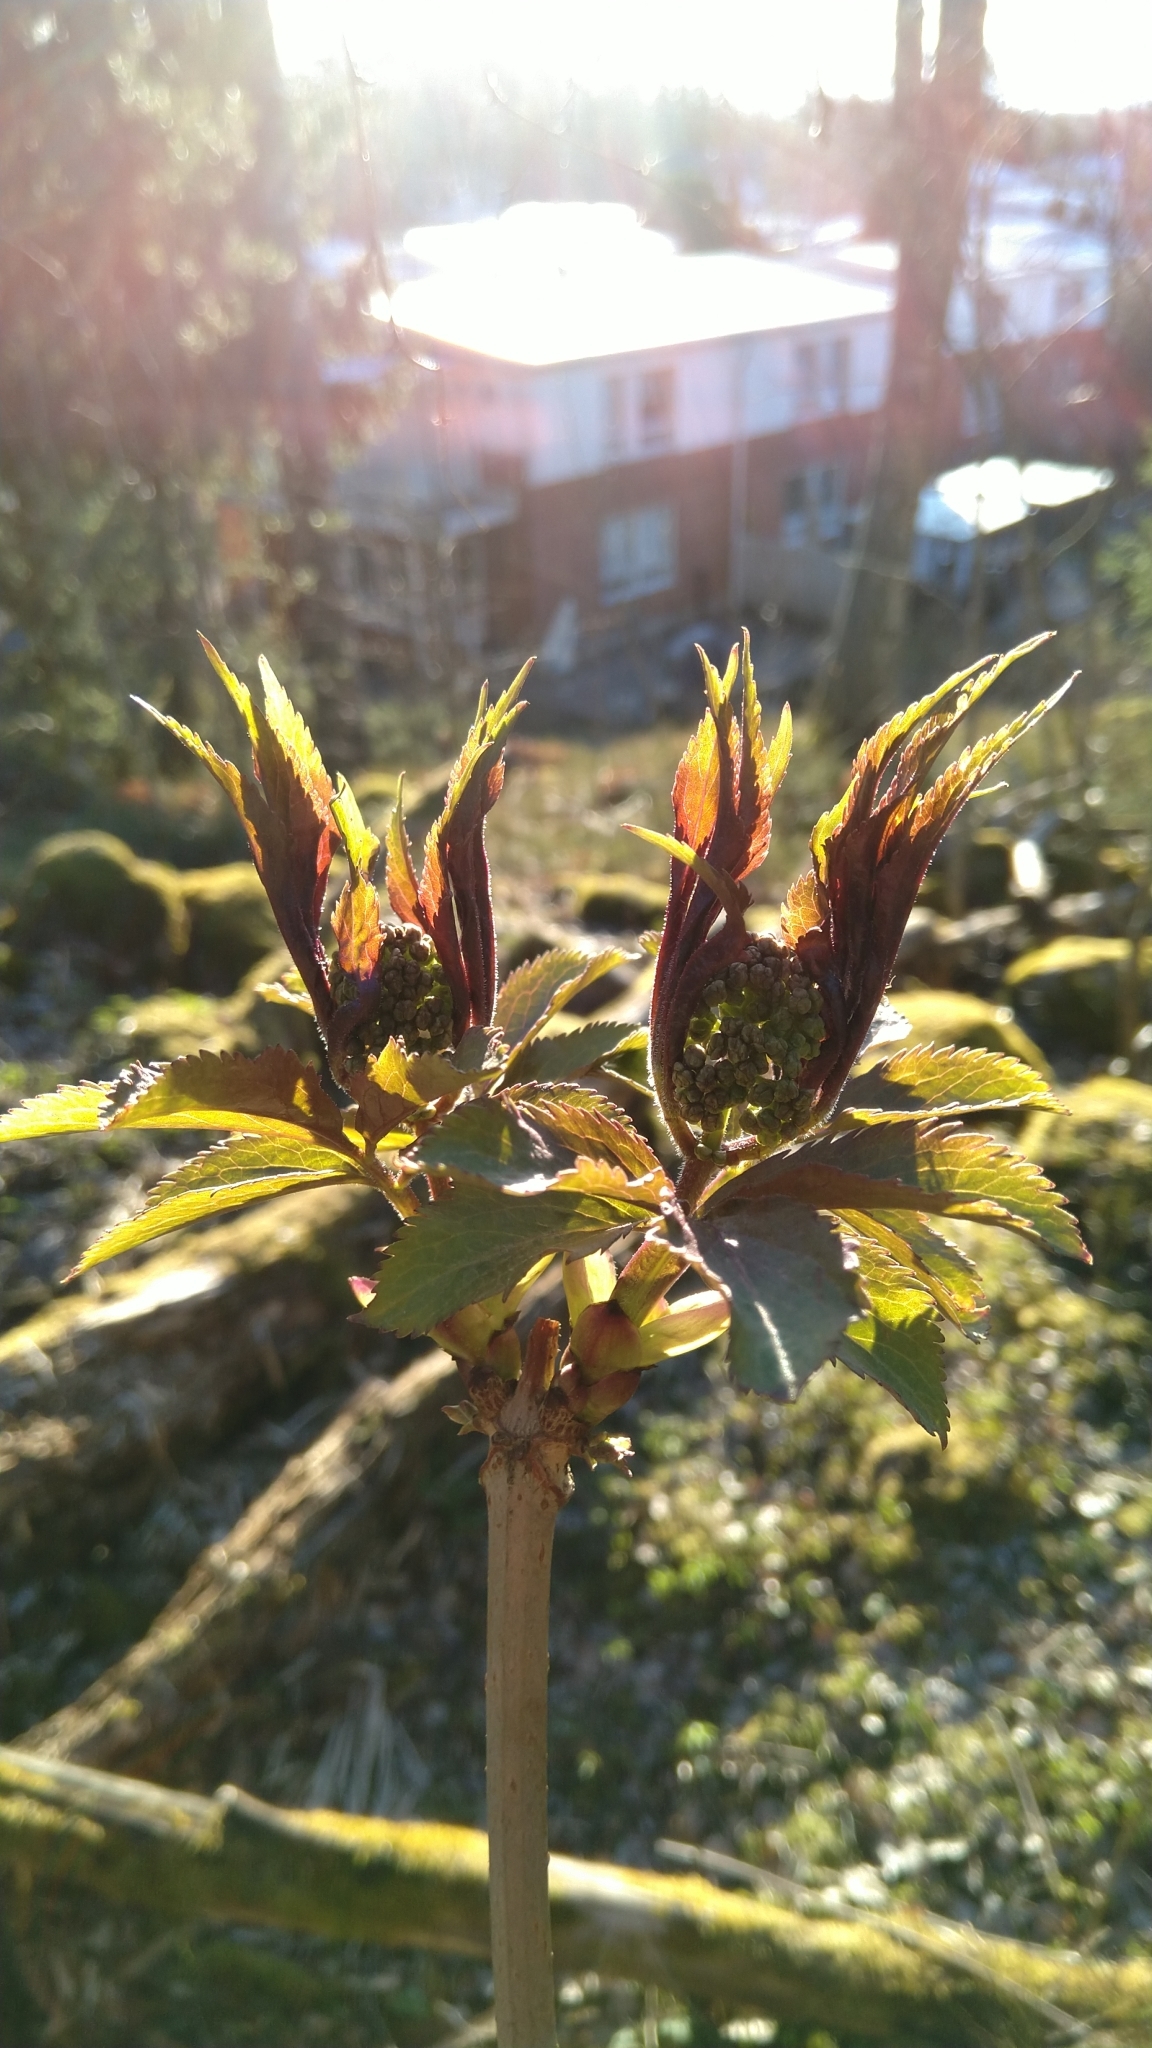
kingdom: Plantae
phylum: Tracheophyta
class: Magnoliopsida
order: Dipsacales
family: Viburnaceae
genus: Sambucus
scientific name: Sambucus racemosa
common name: Red-berried elder
